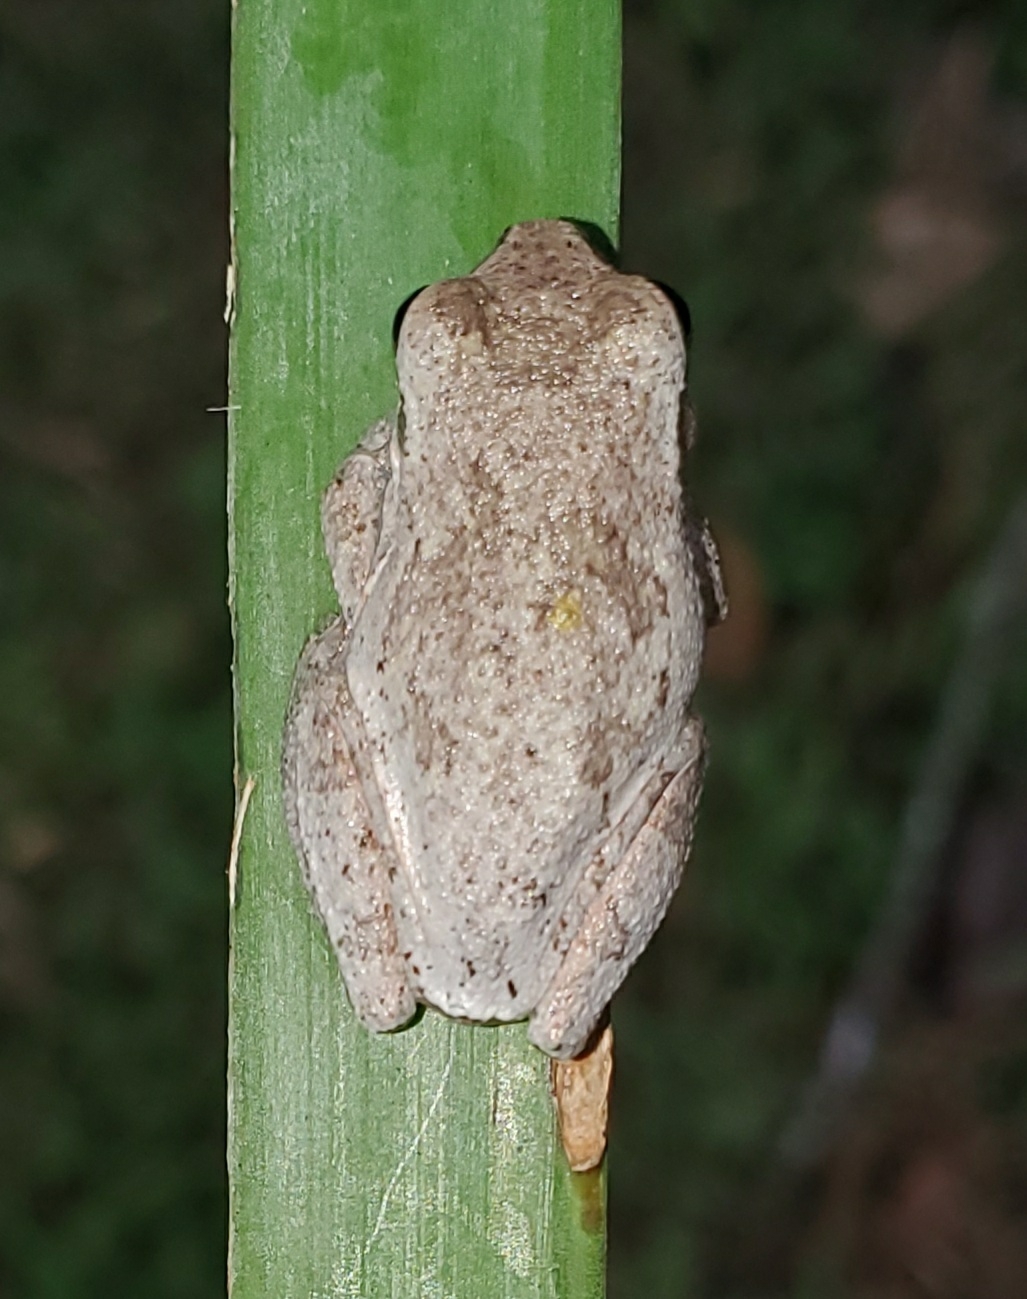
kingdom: Animalia
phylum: Chordata
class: Amphibia
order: Anura
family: Hylidae
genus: Hyla
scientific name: Hyla femoralis
